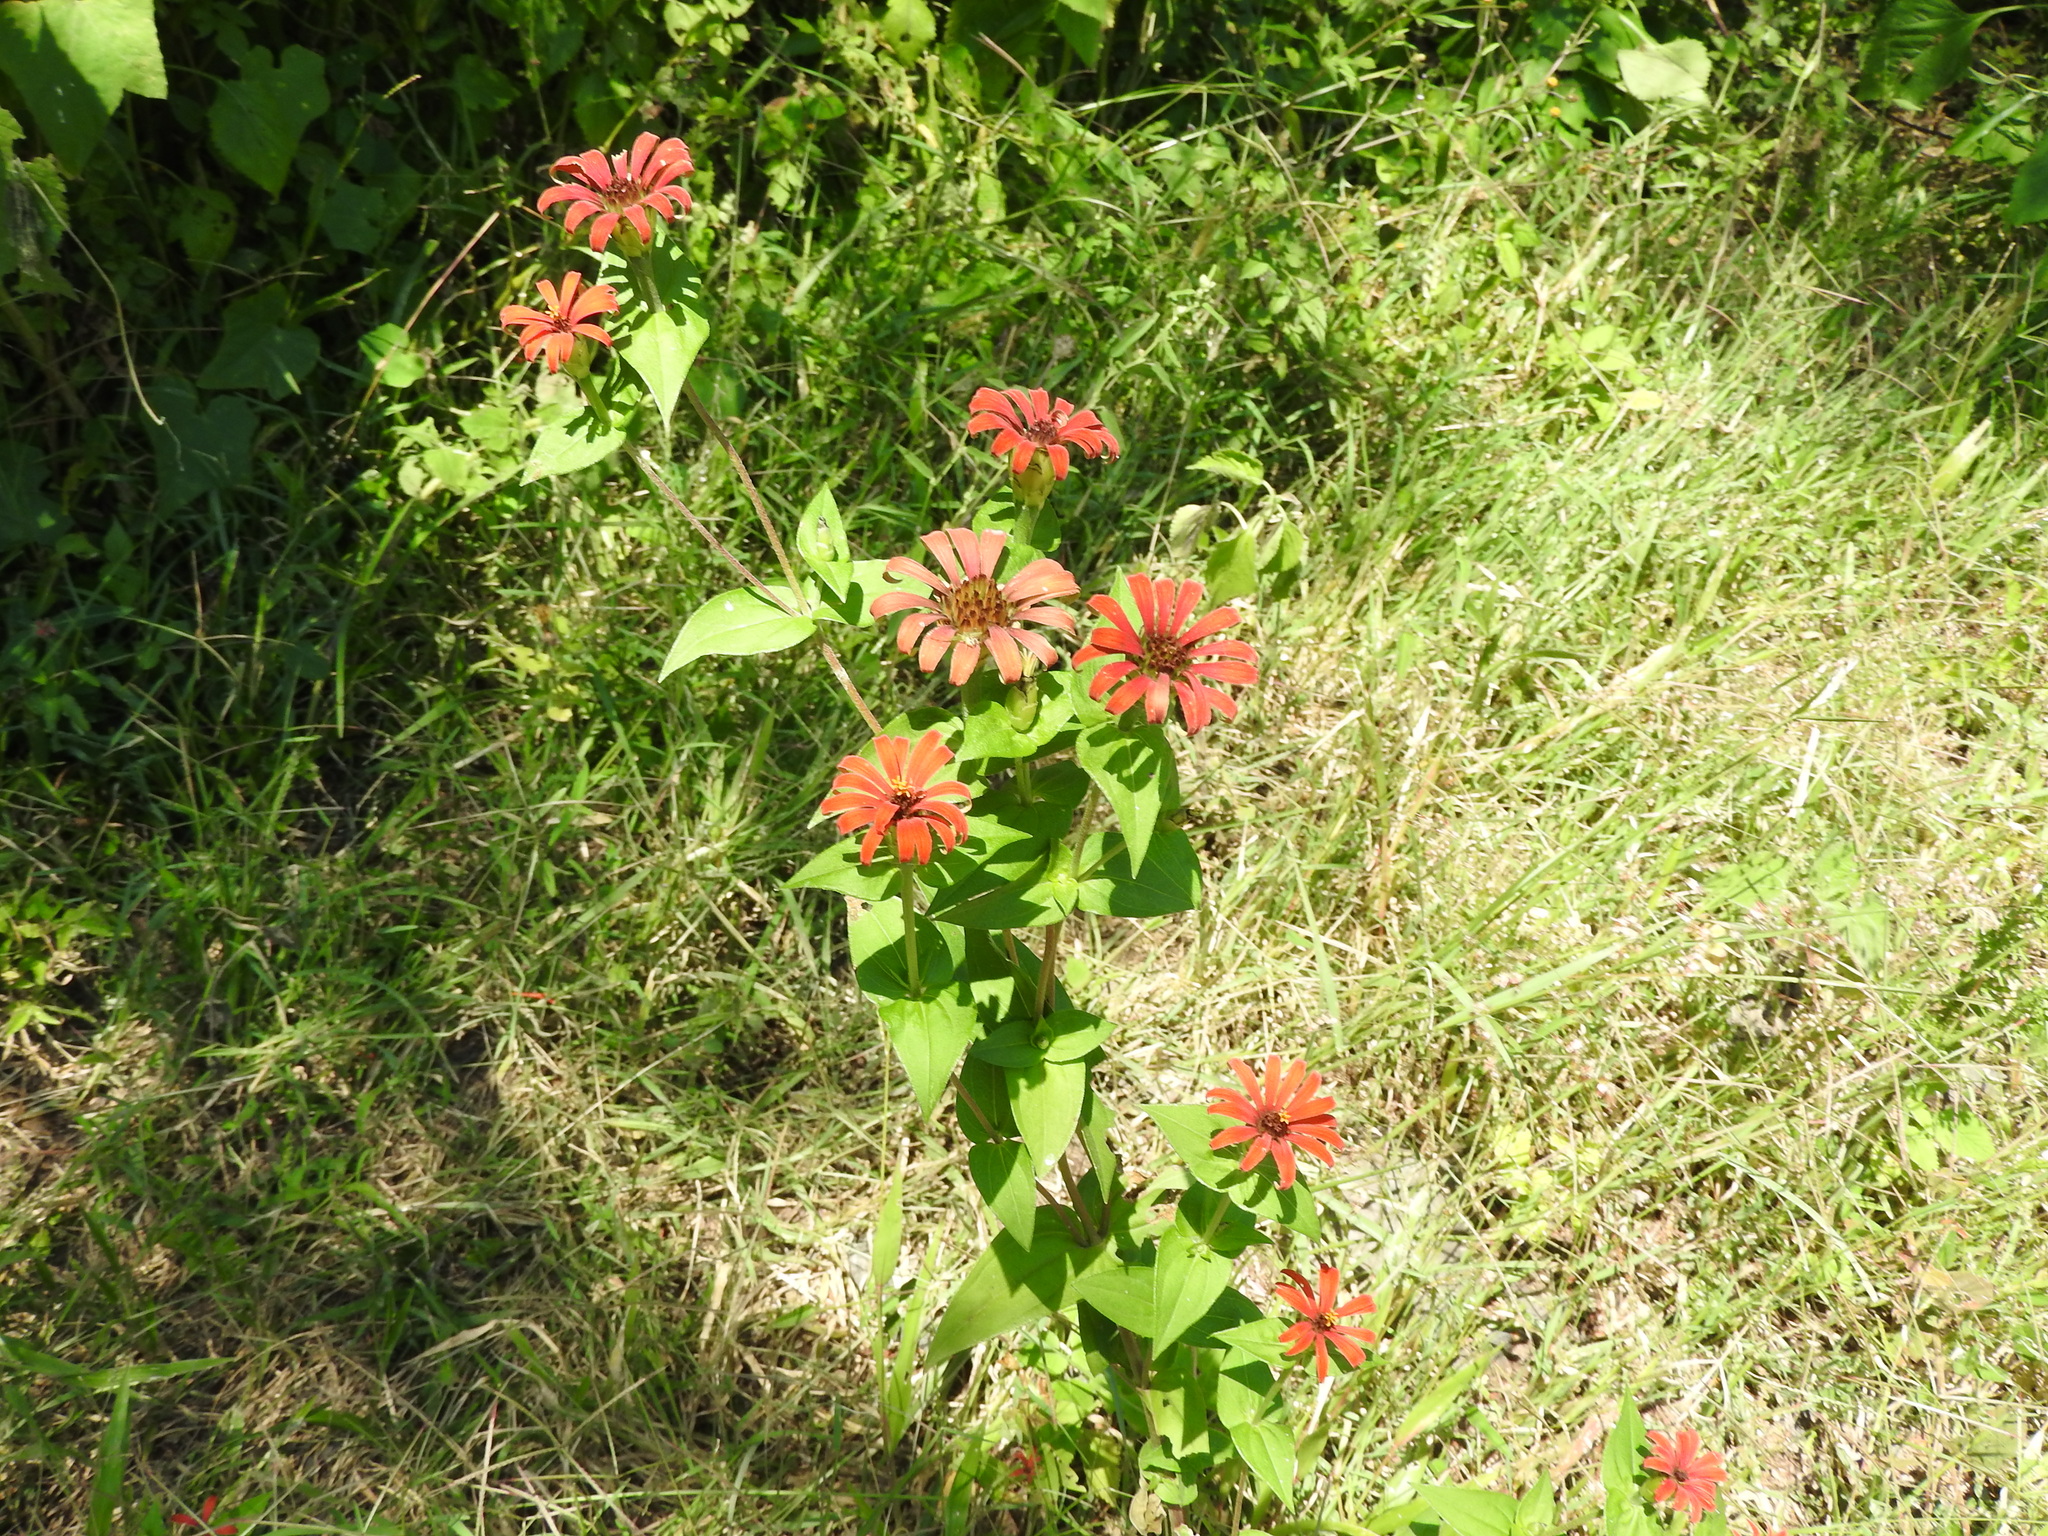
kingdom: Plantae
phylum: Tracheophyta
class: Magnoliopsida
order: Asterales
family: Asteraceae
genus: Zinnia
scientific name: Zinnia peruviana
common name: Peruvian zinnia
